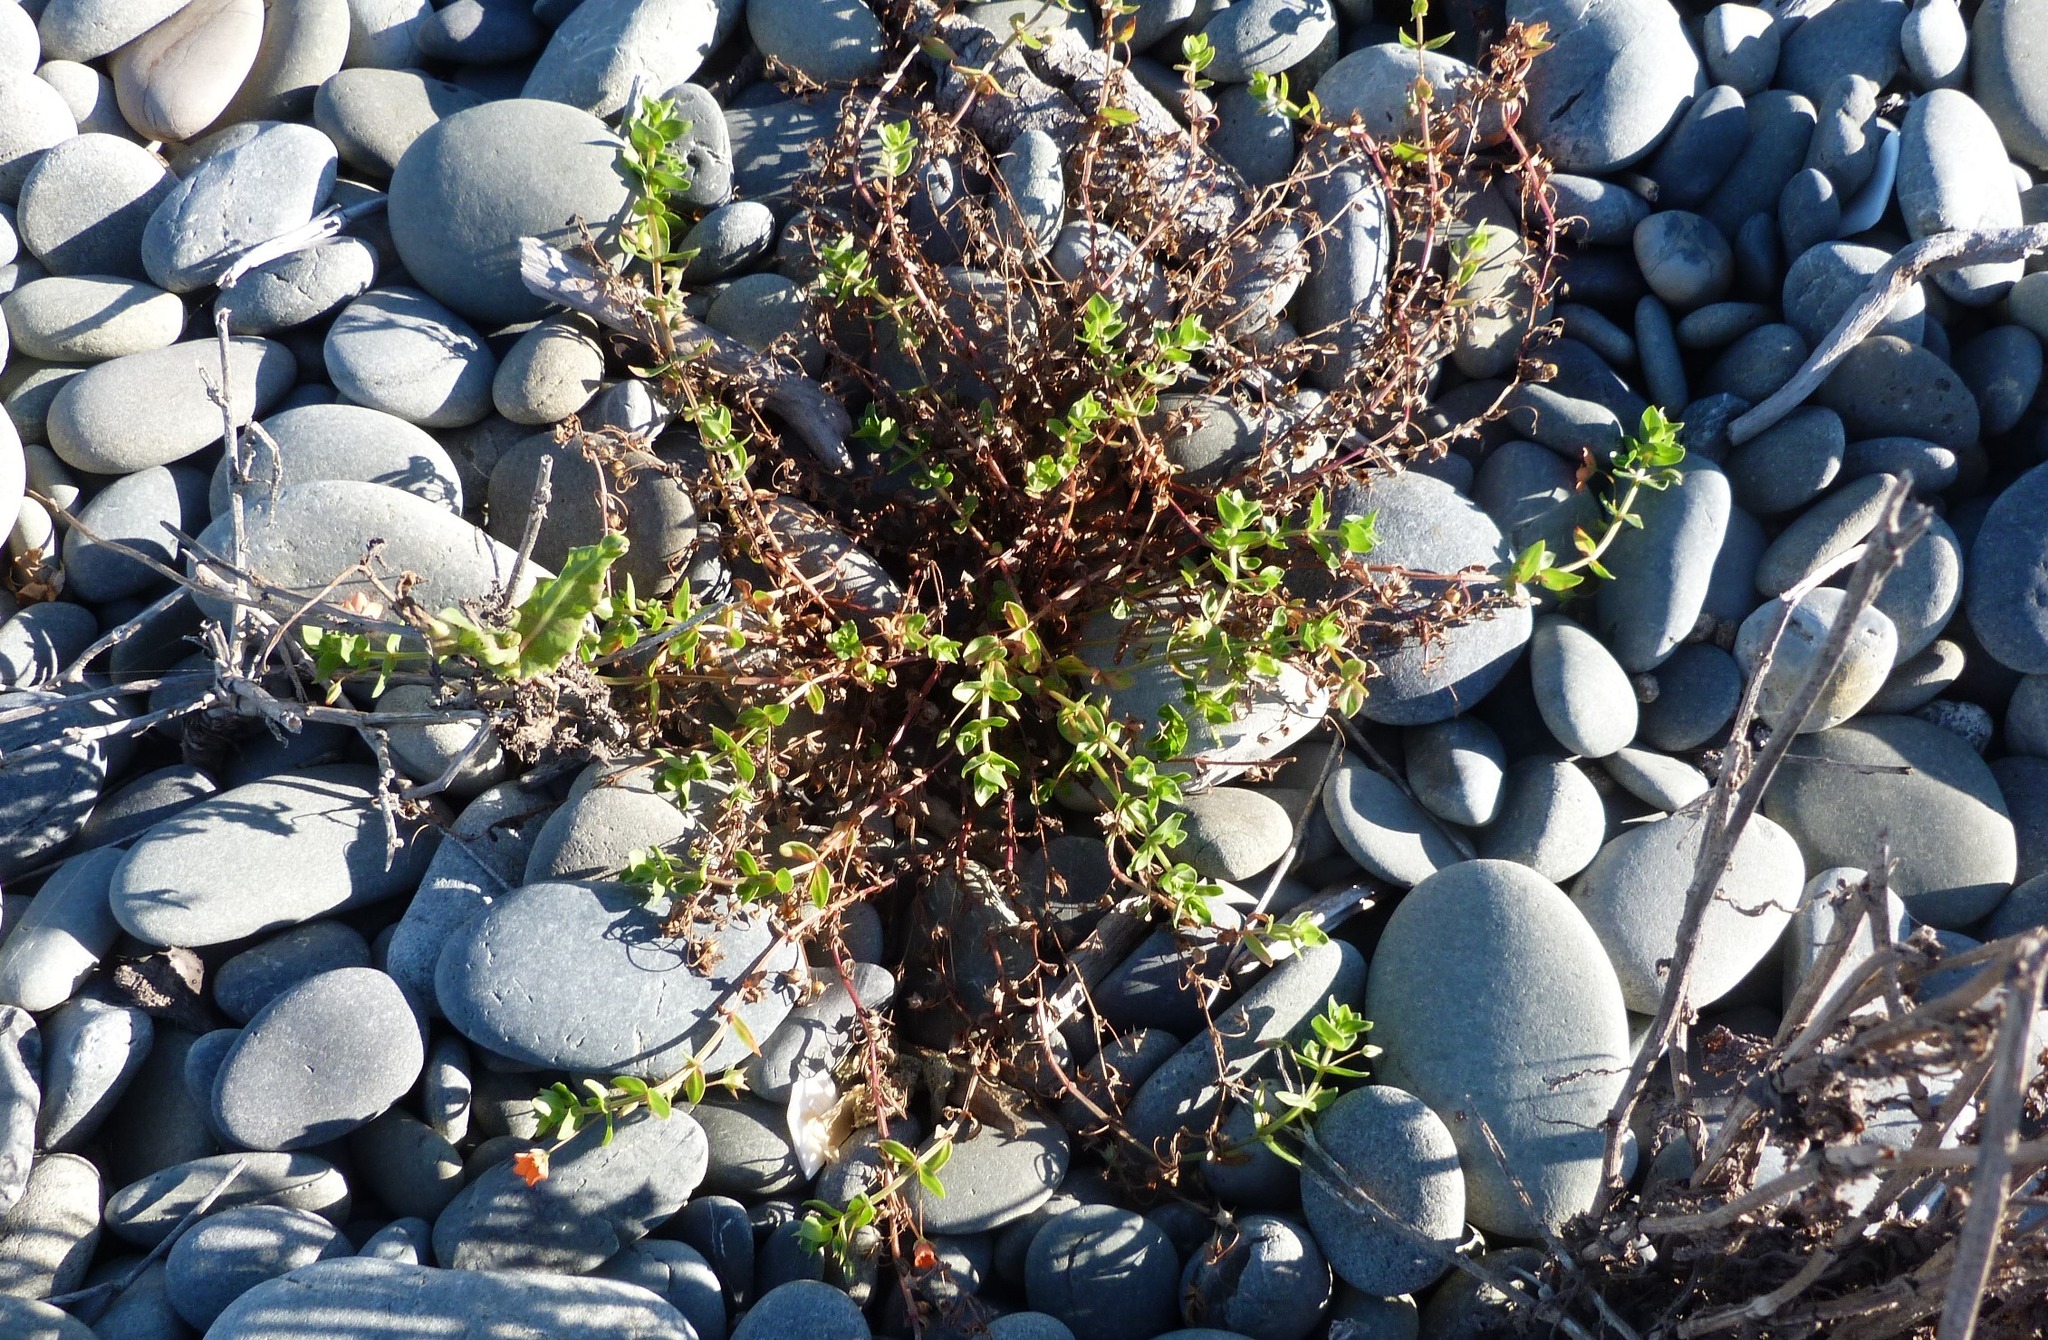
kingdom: Plantae
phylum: Tracheophyta
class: Magnoliopsida
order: Ericales
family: Primulaceae
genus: Lysimachia
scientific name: Lysimachia arvensis
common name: Scarlet pimpernel
